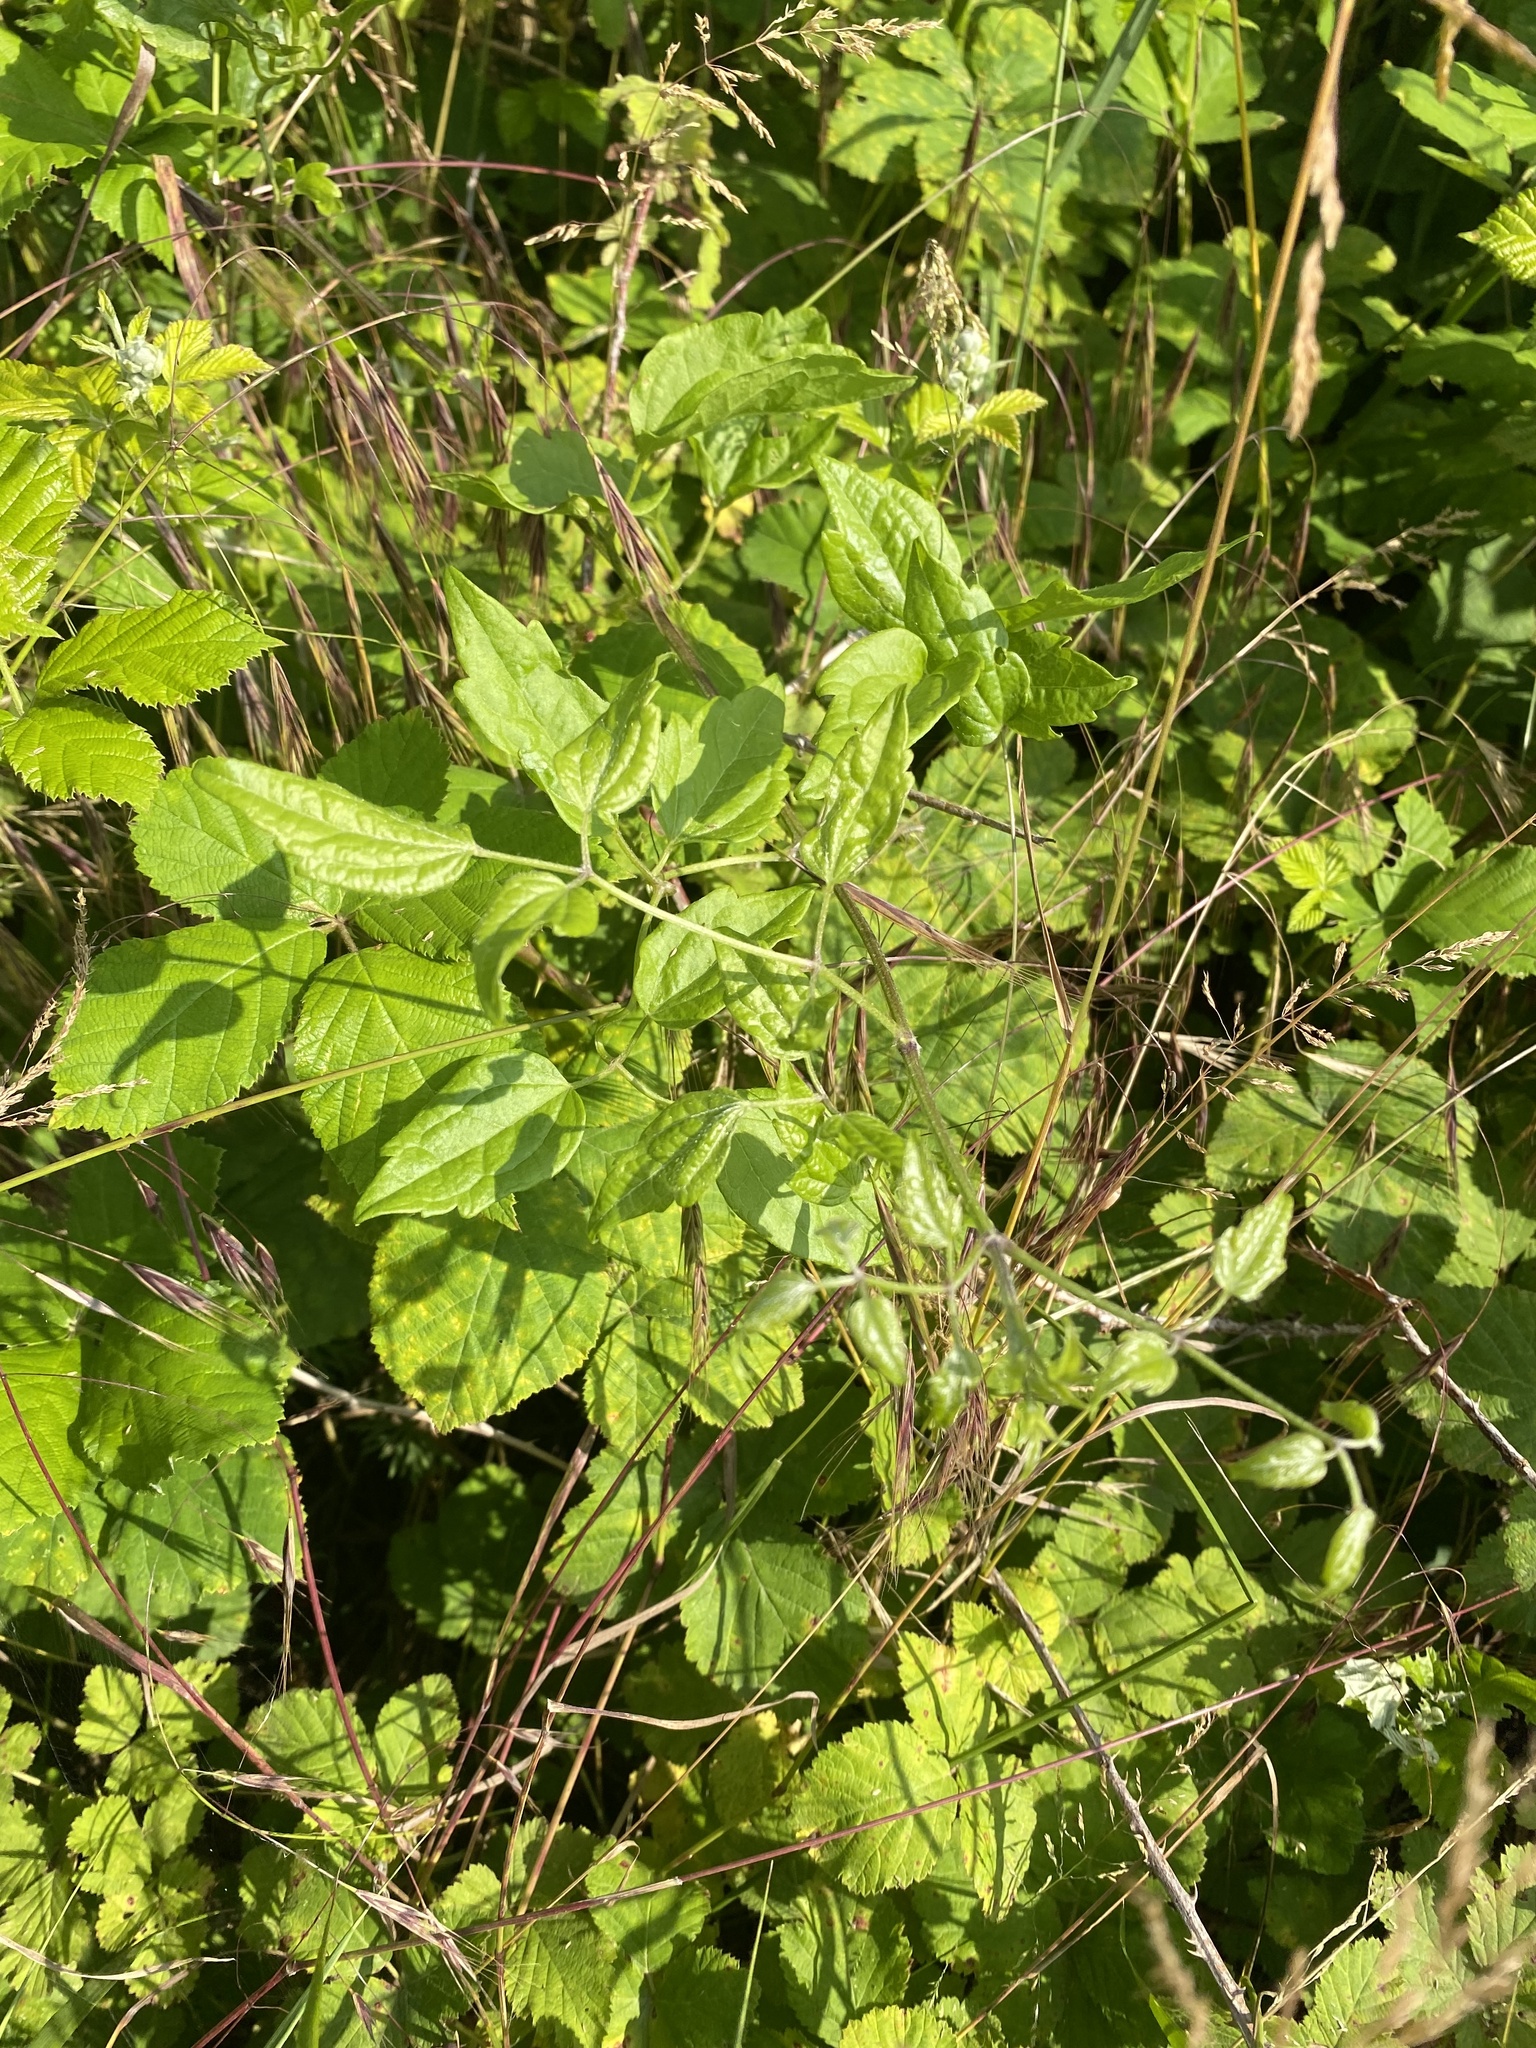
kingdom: Plantae
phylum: Tracheophyta
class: Magnoliopsida
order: Ranunculales
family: Ranunculaceae
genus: Clematis
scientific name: Clematis vitalba
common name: Evergreen clematis
